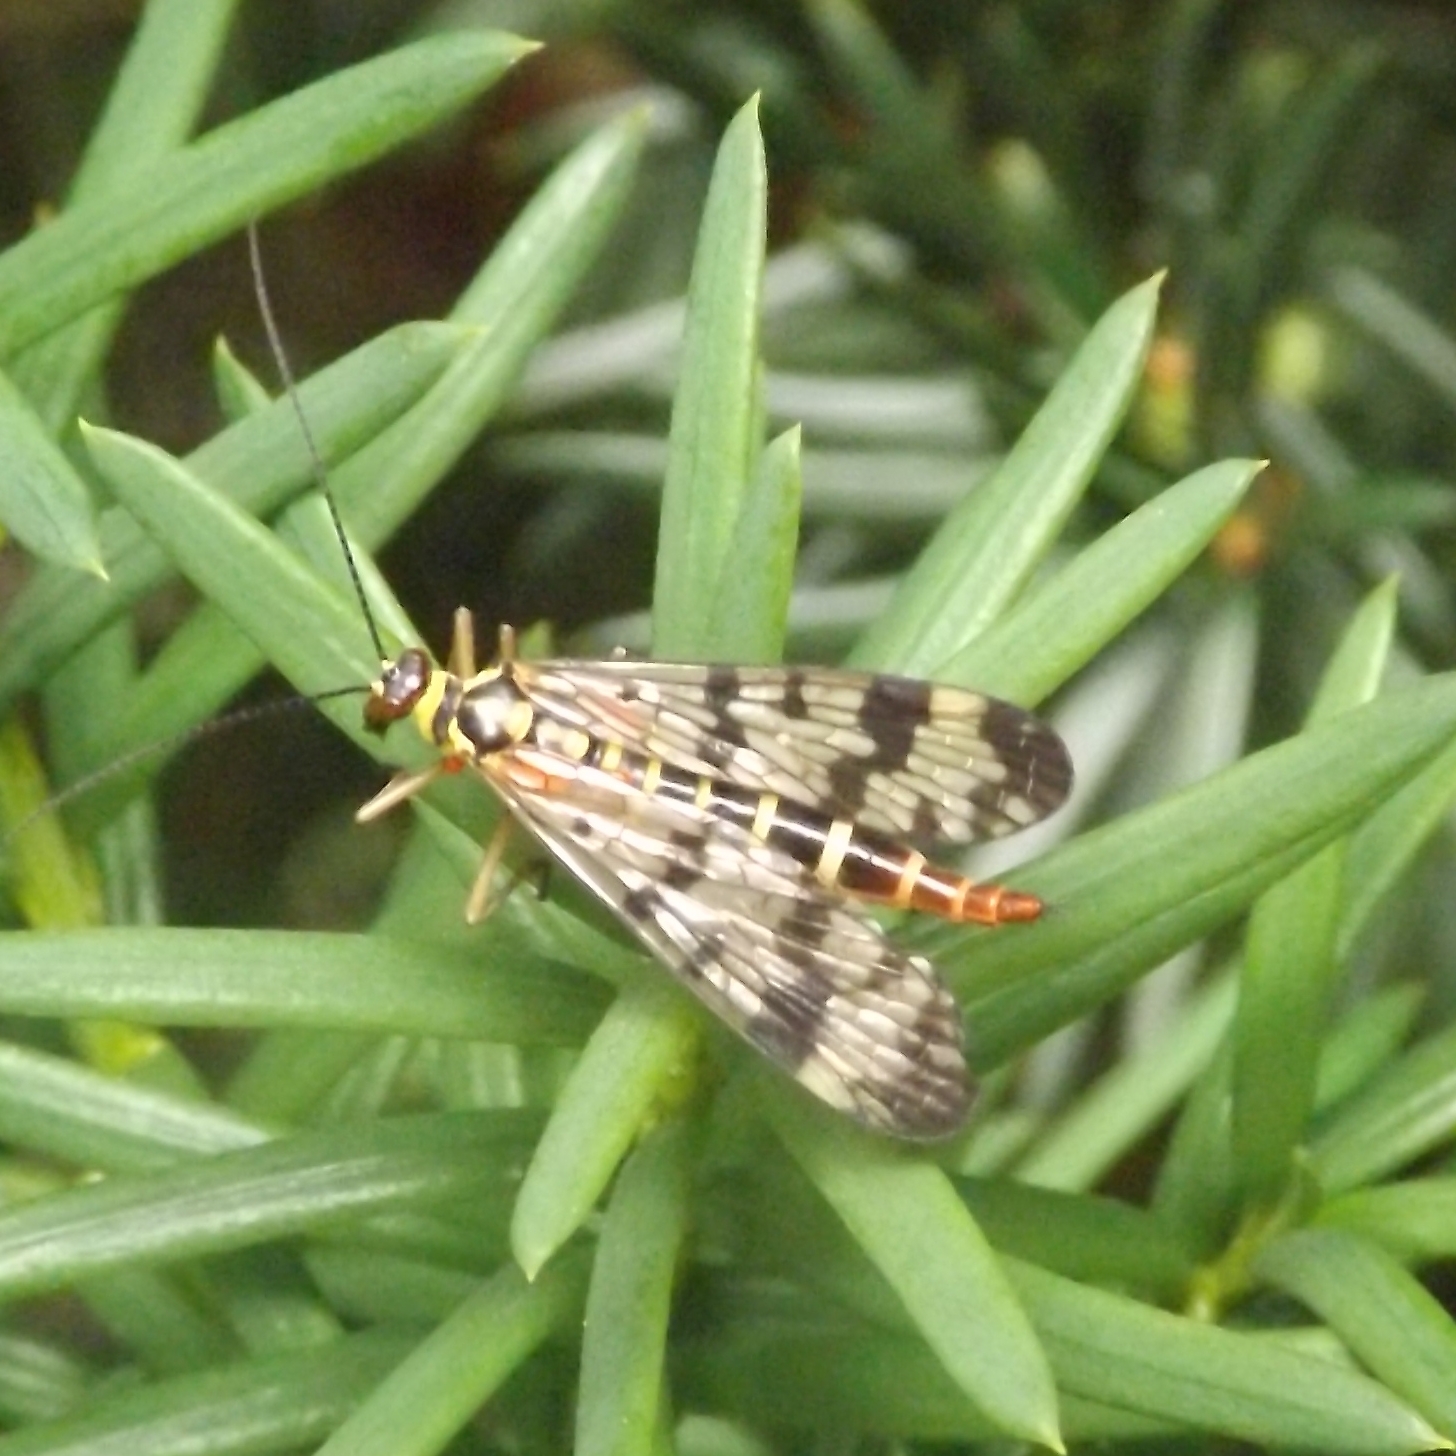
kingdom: Animalia
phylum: Arthropoda
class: Insecta
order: Mecoptera
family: Panorpidae
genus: Panorpa
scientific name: Panorpa communis
